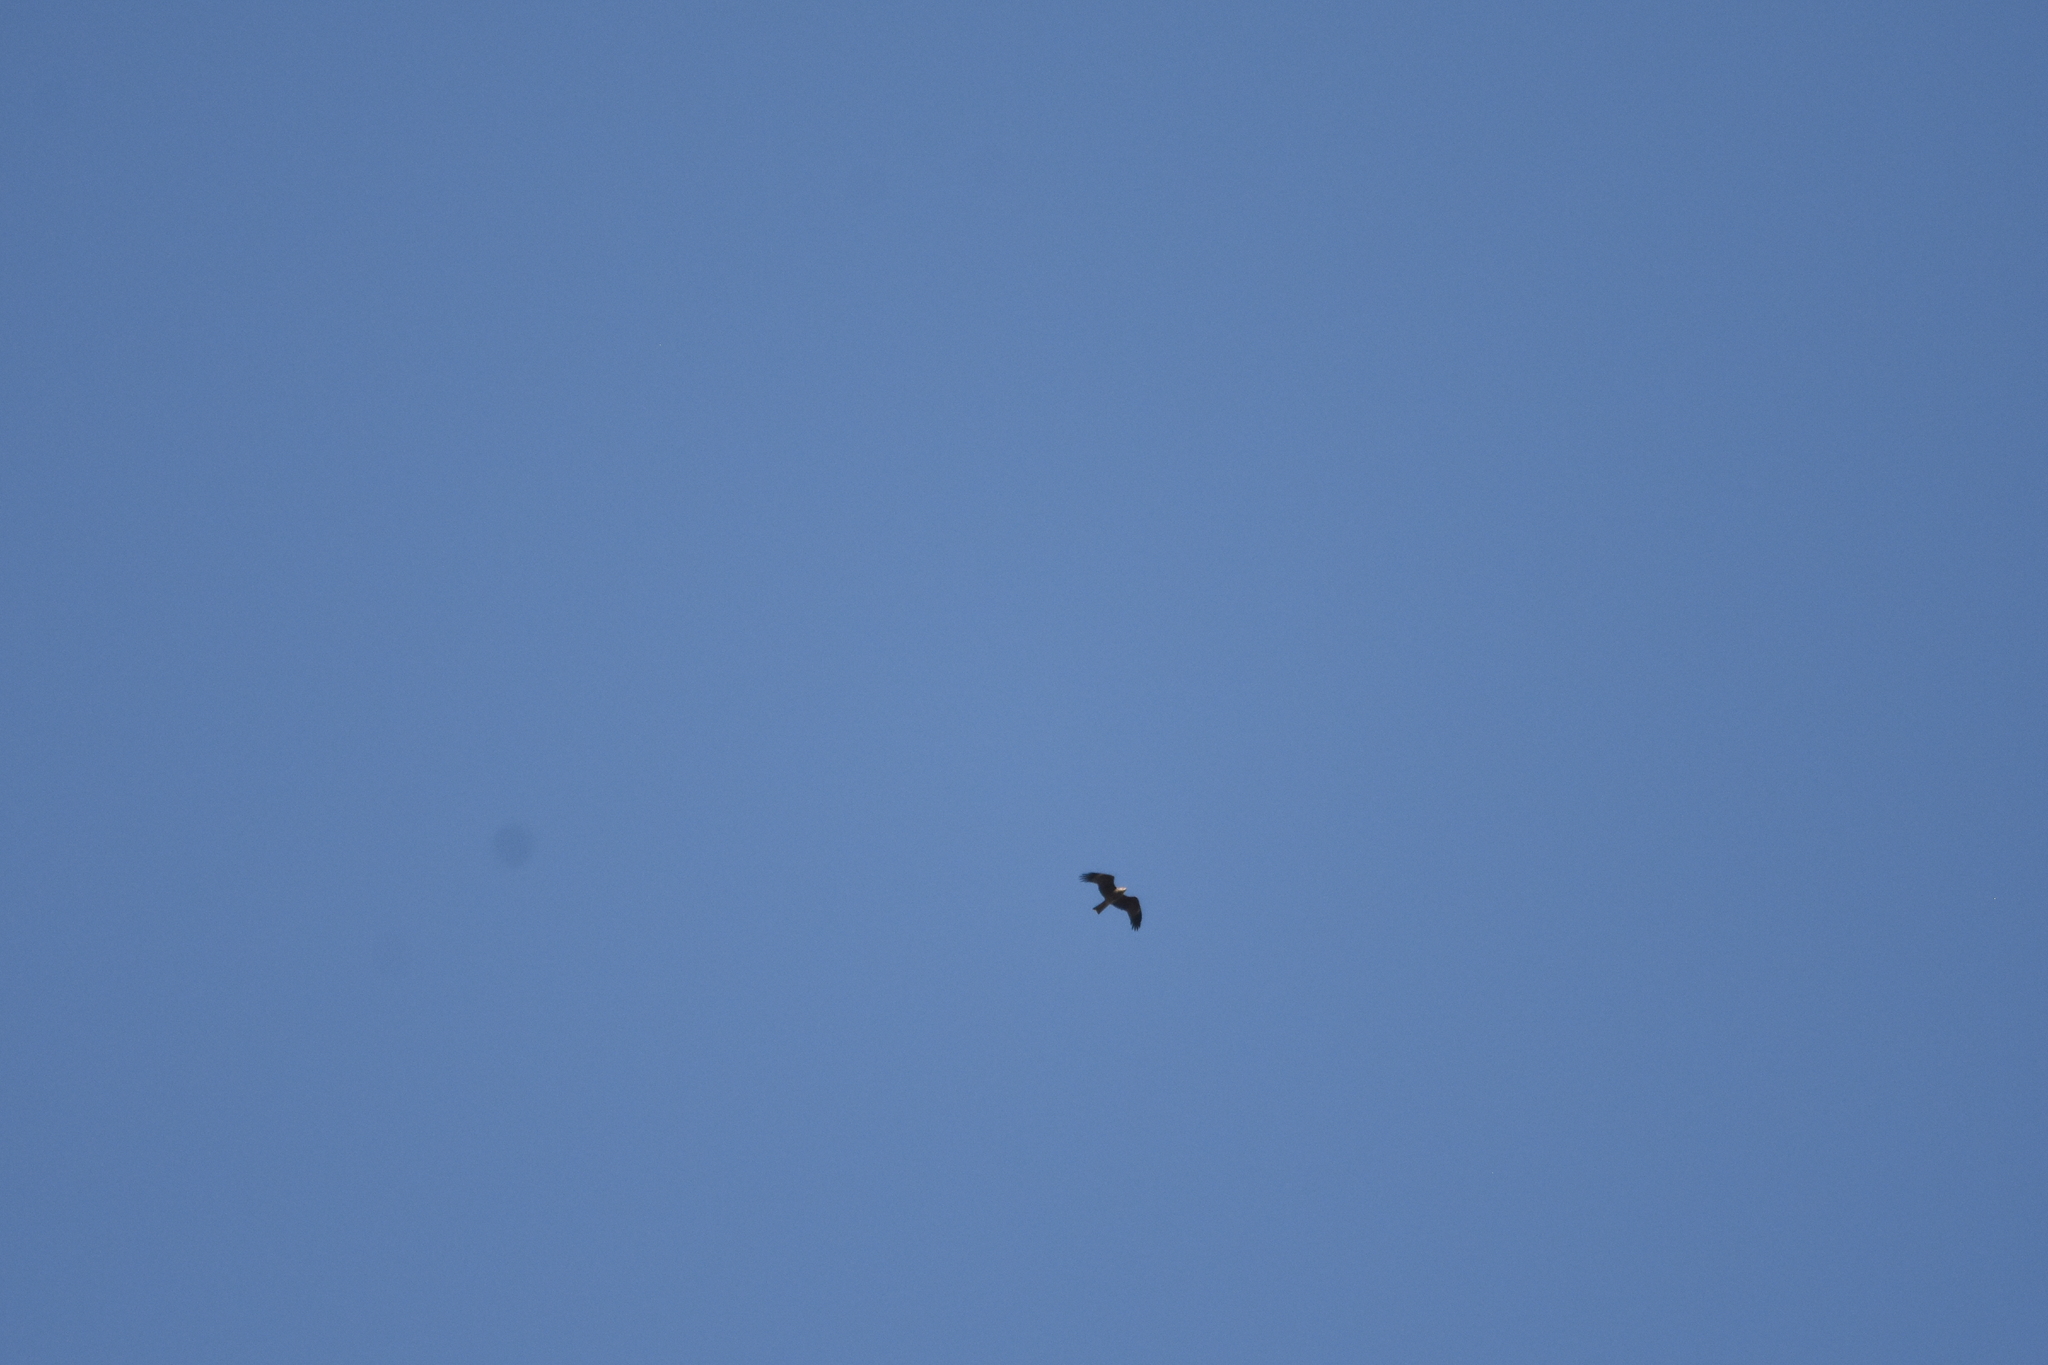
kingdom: Animalia
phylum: Chordata
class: Aves
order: Accipitriformes
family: Accipitridae
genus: Milvus
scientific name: Milvus migrans
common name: Black kite
